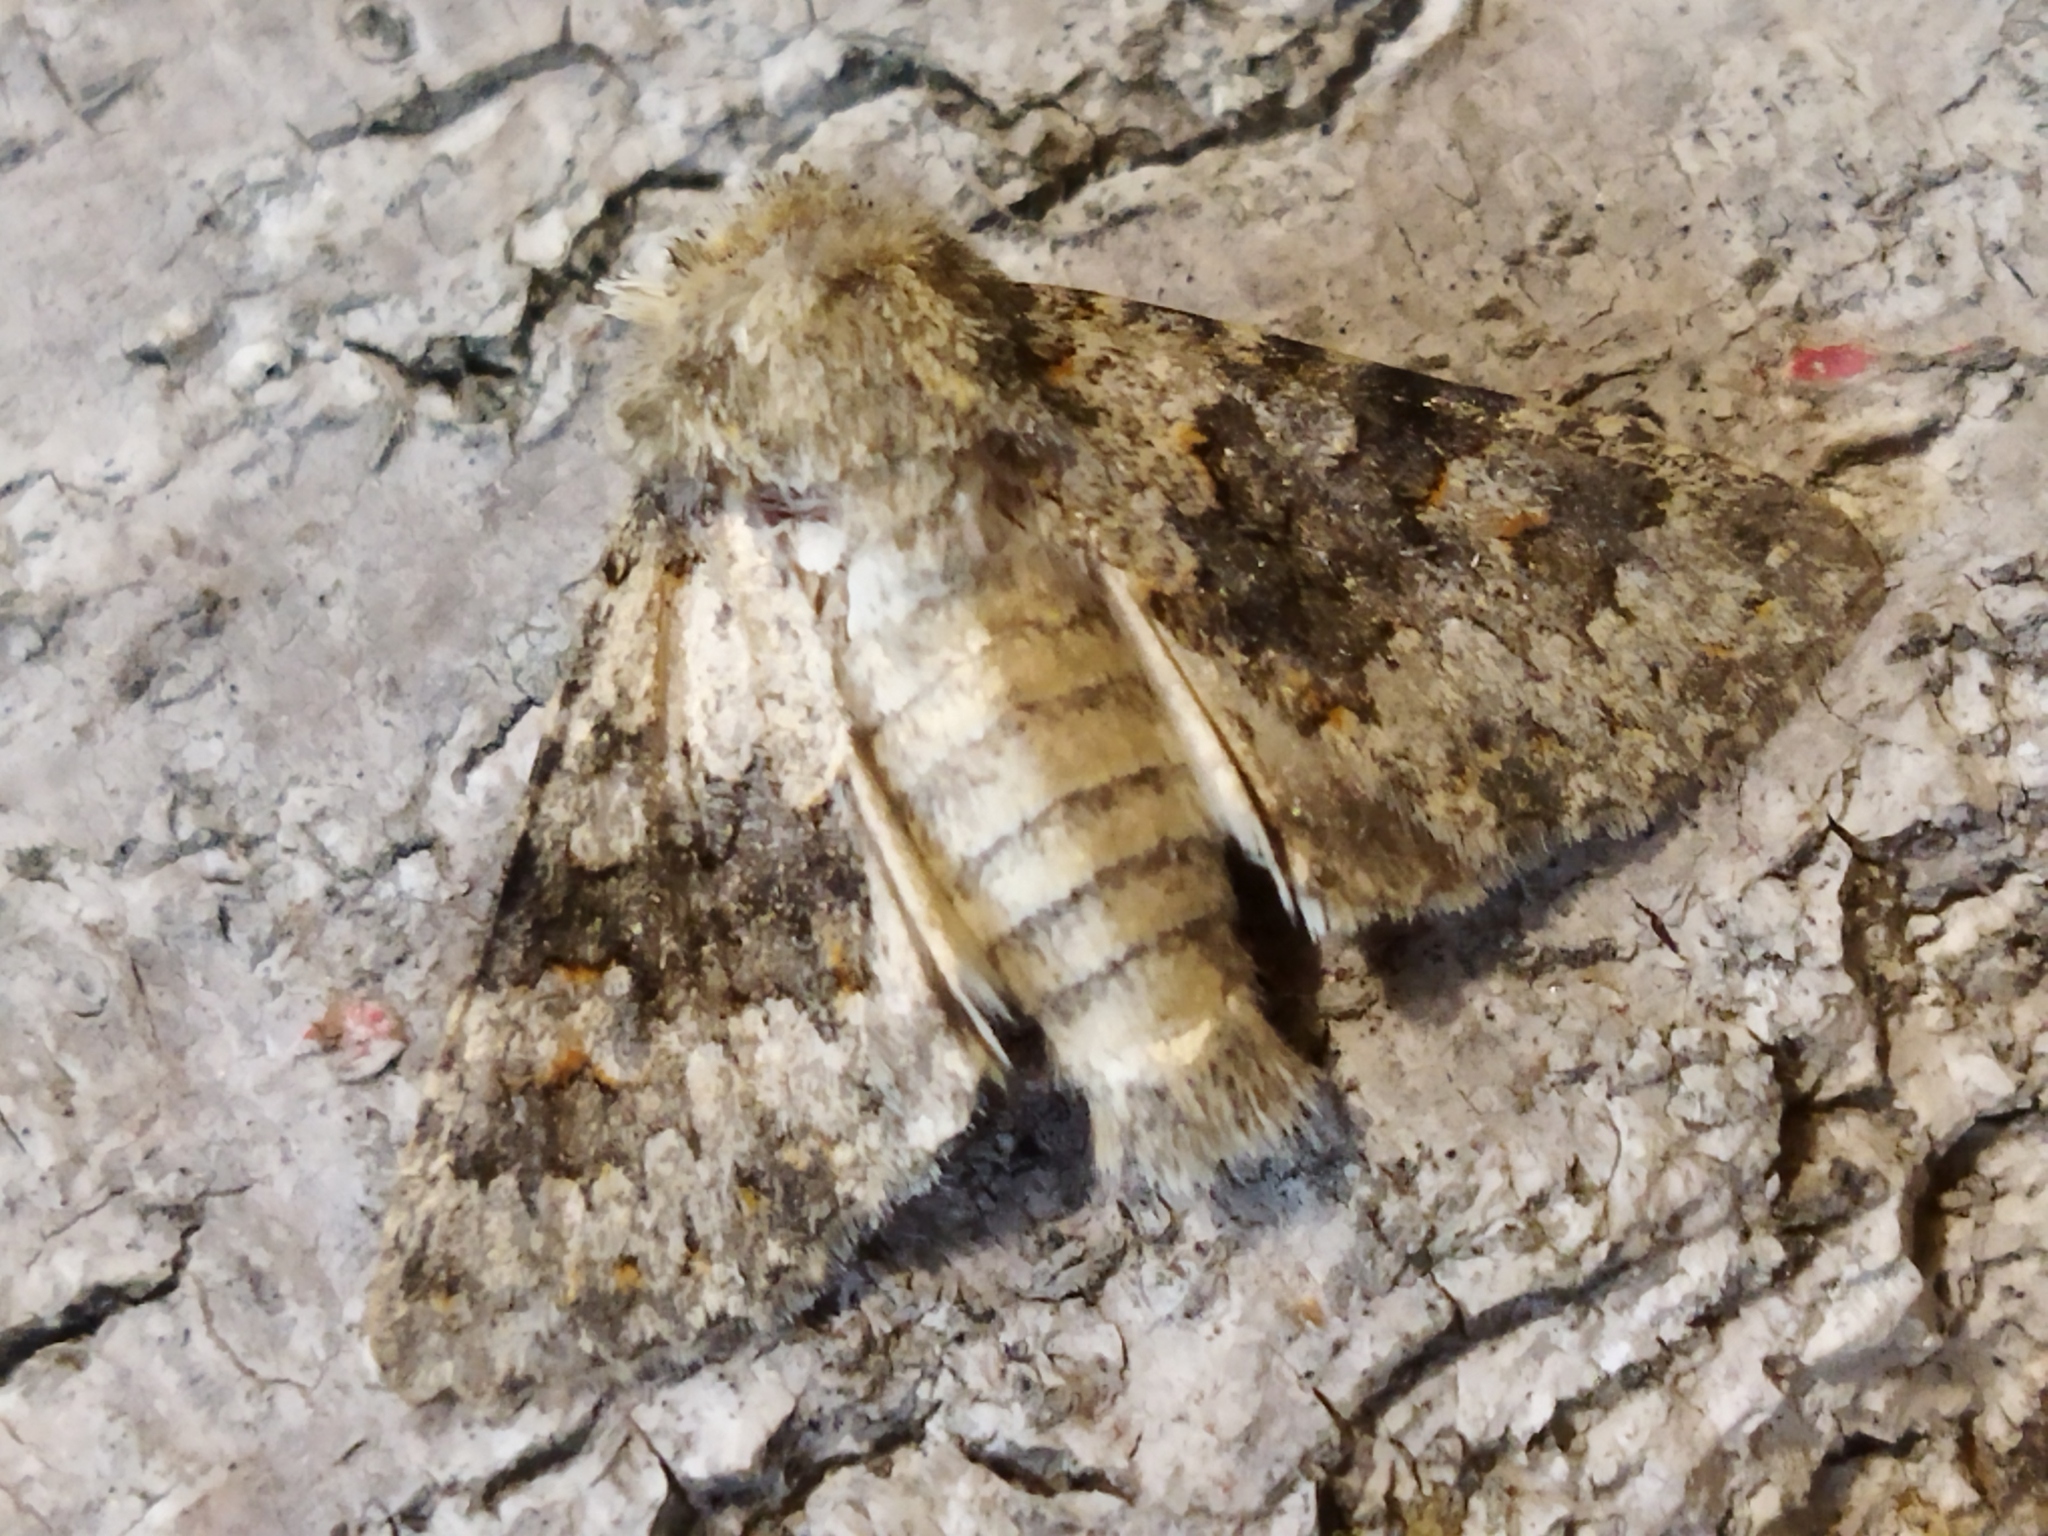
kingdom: Animalia
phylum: Arthropoda
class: Insecta
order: Lepidoptera
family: Noctuidae
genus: Hecatera
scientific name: Hecatera dysodea
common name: Small ranunculus
